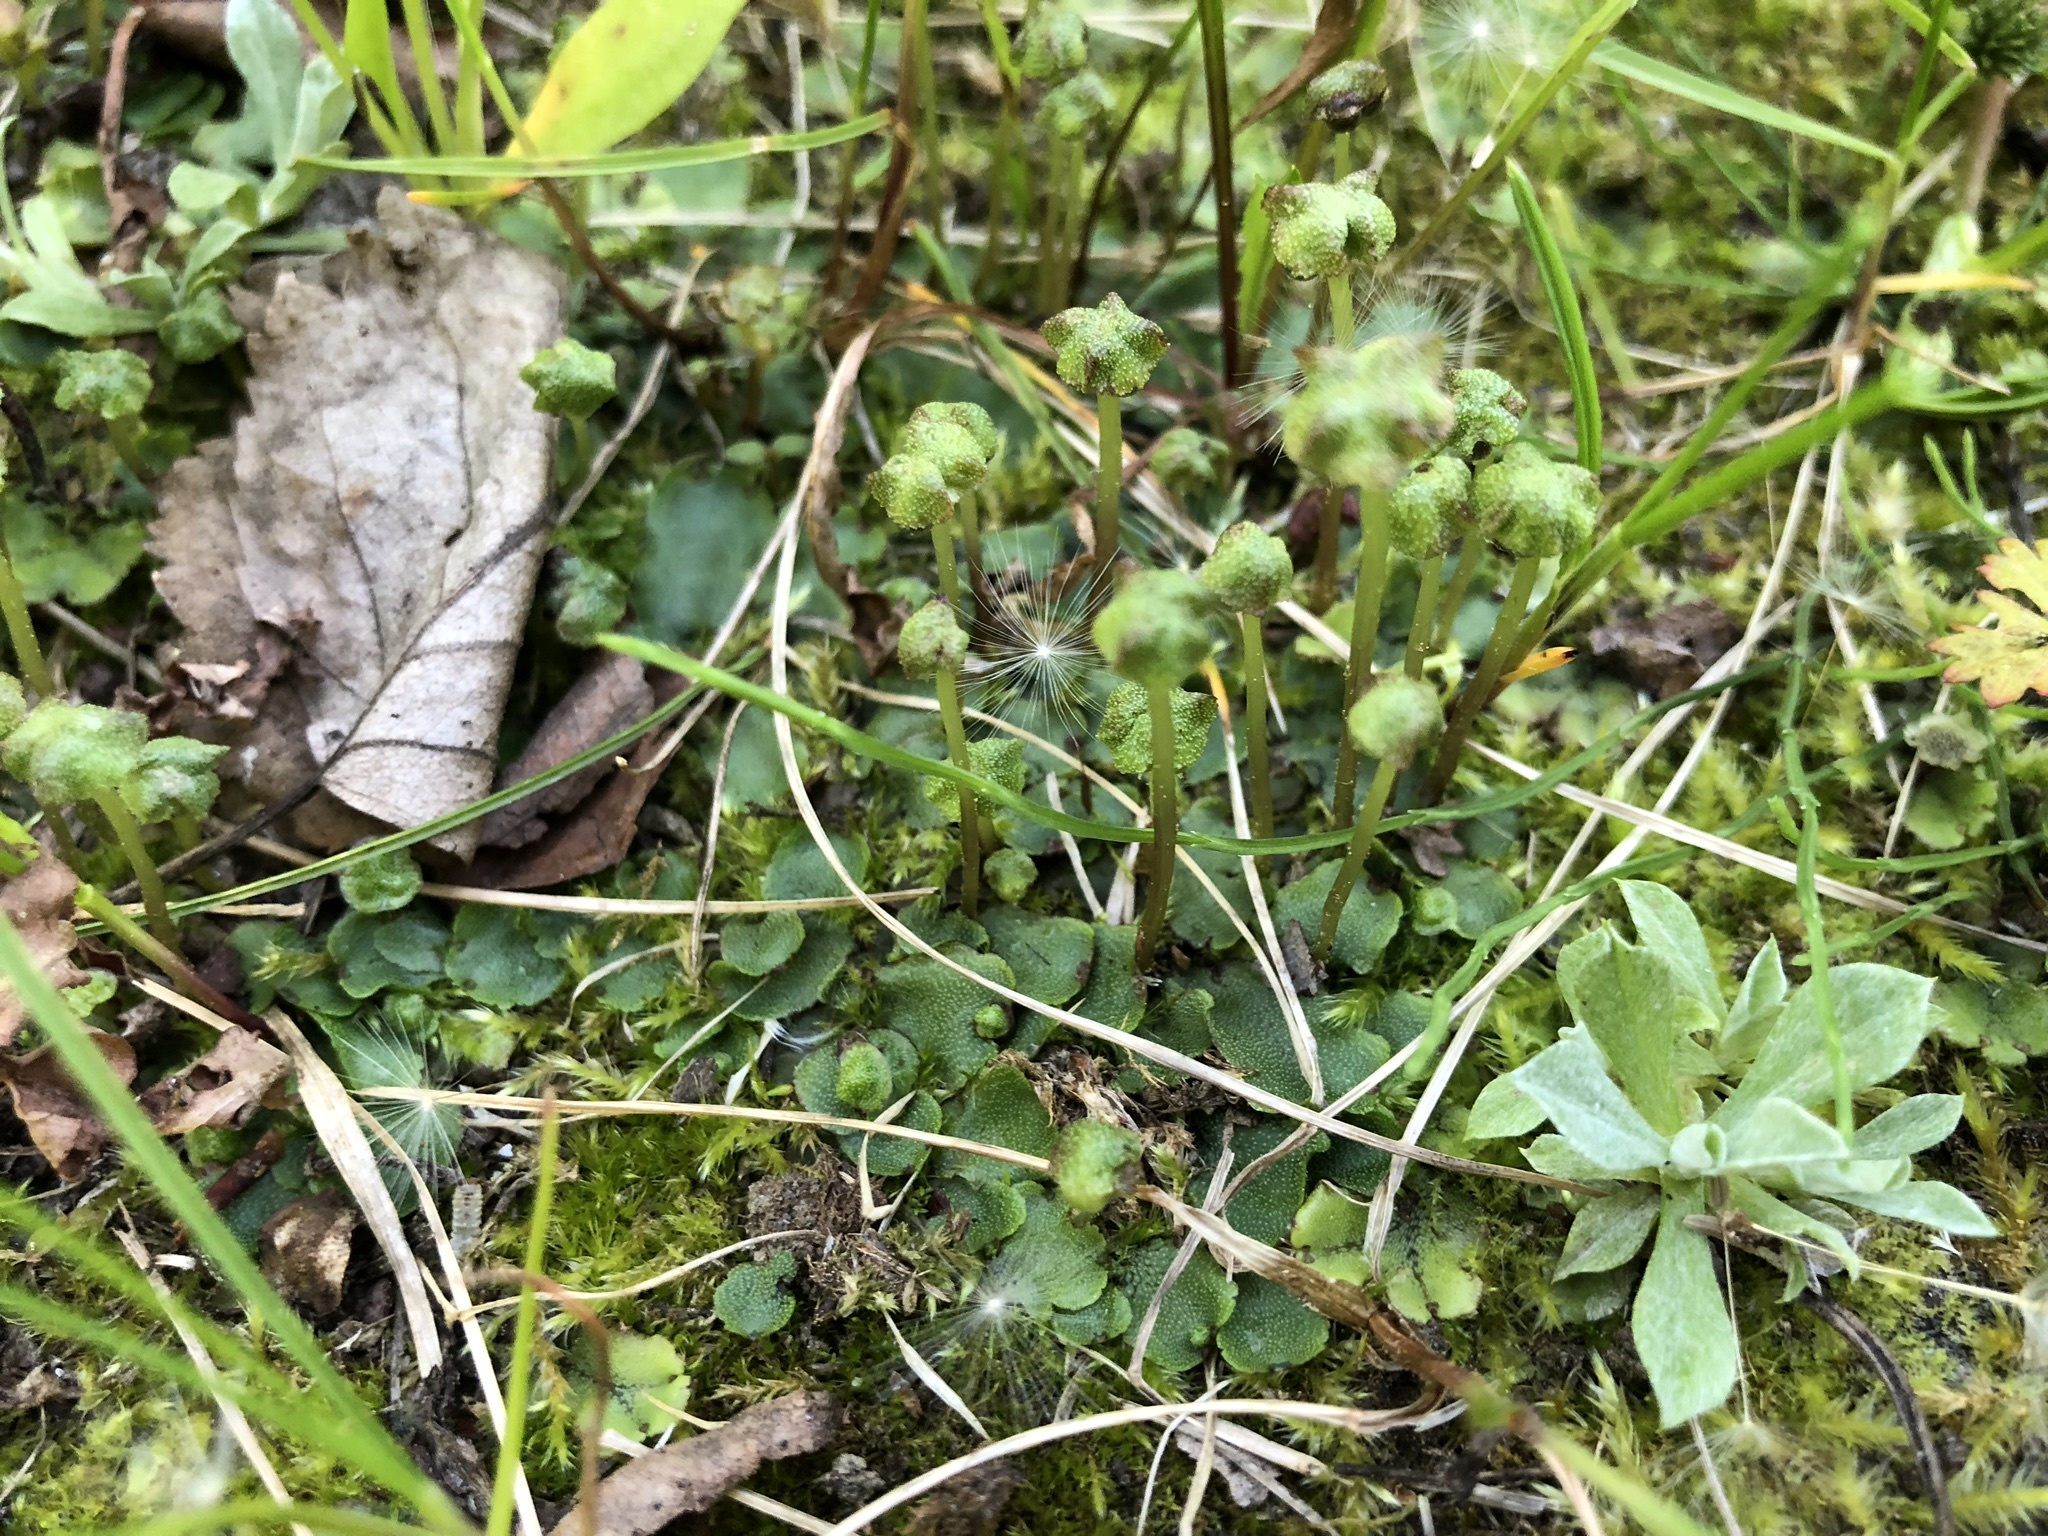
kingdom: Plantae
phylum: Marchantiophyta
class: Marchantiopsida
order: Marchantiales
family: Marchantiaceae
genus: Marchantia
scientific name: Marchantia quadrata
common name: Narrow mushroom-headed liverwort
